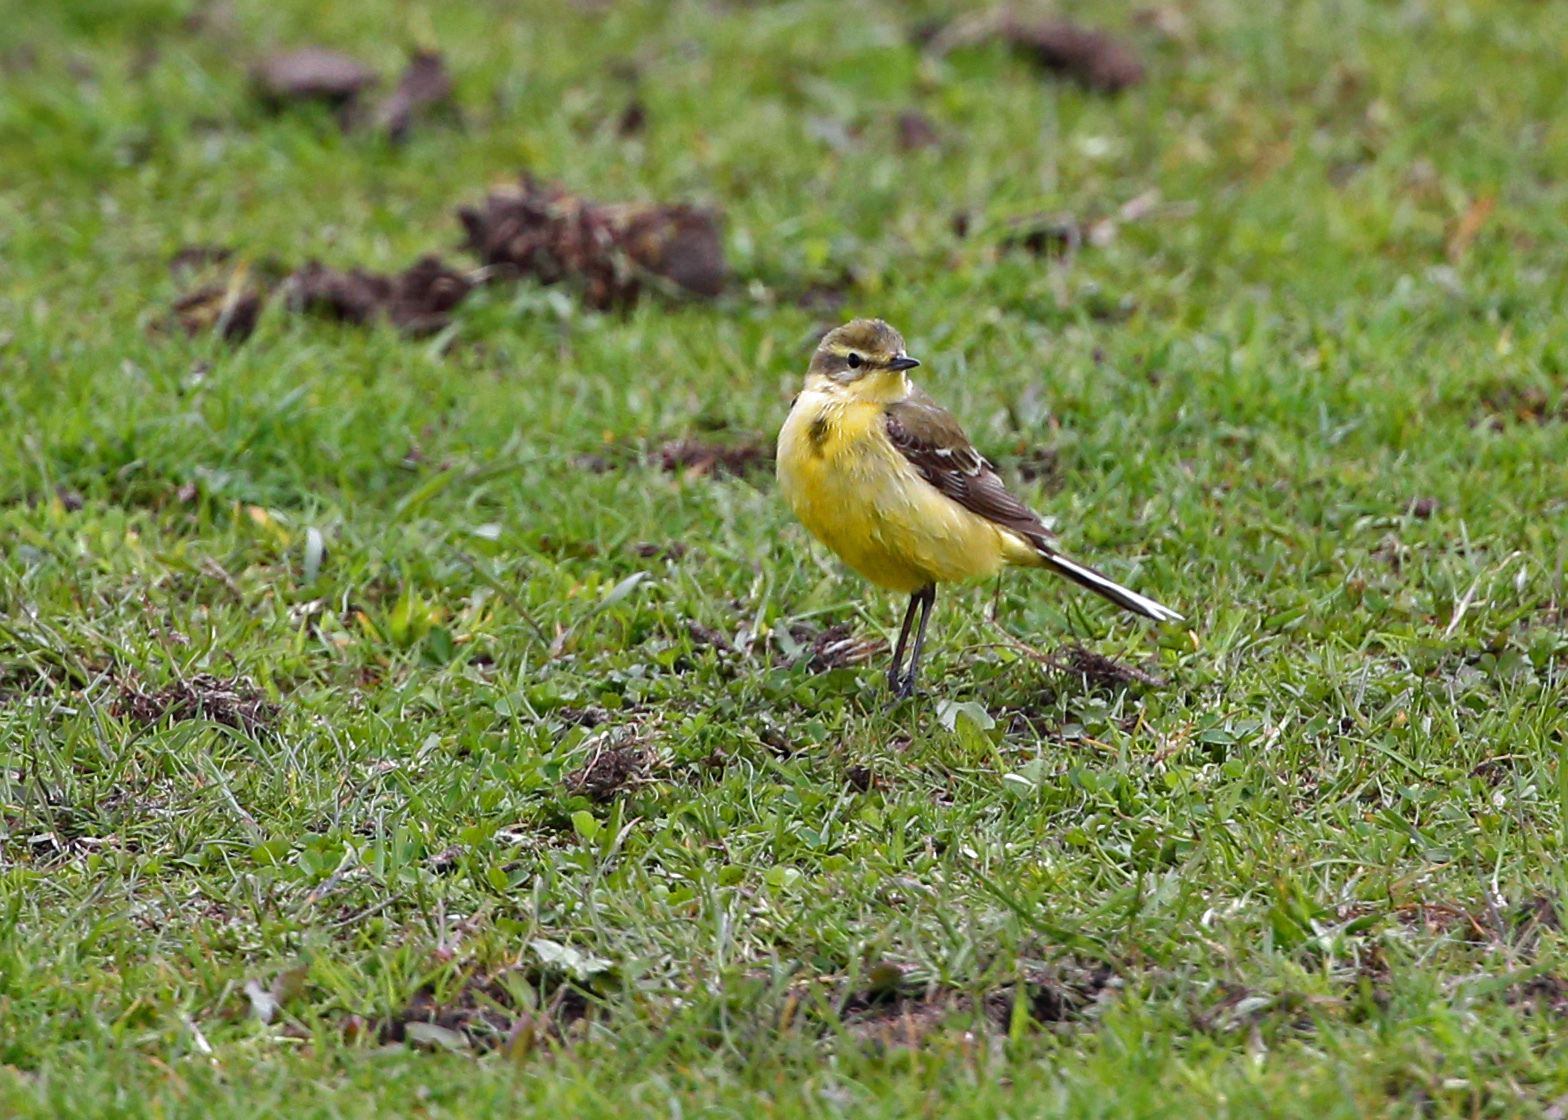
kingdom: Animalia
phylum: Chordata
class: Aves
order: Passeriformes
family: Motacillidae
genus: Motacilla
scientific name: Motacilla flava
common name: Western yellow wagtail
